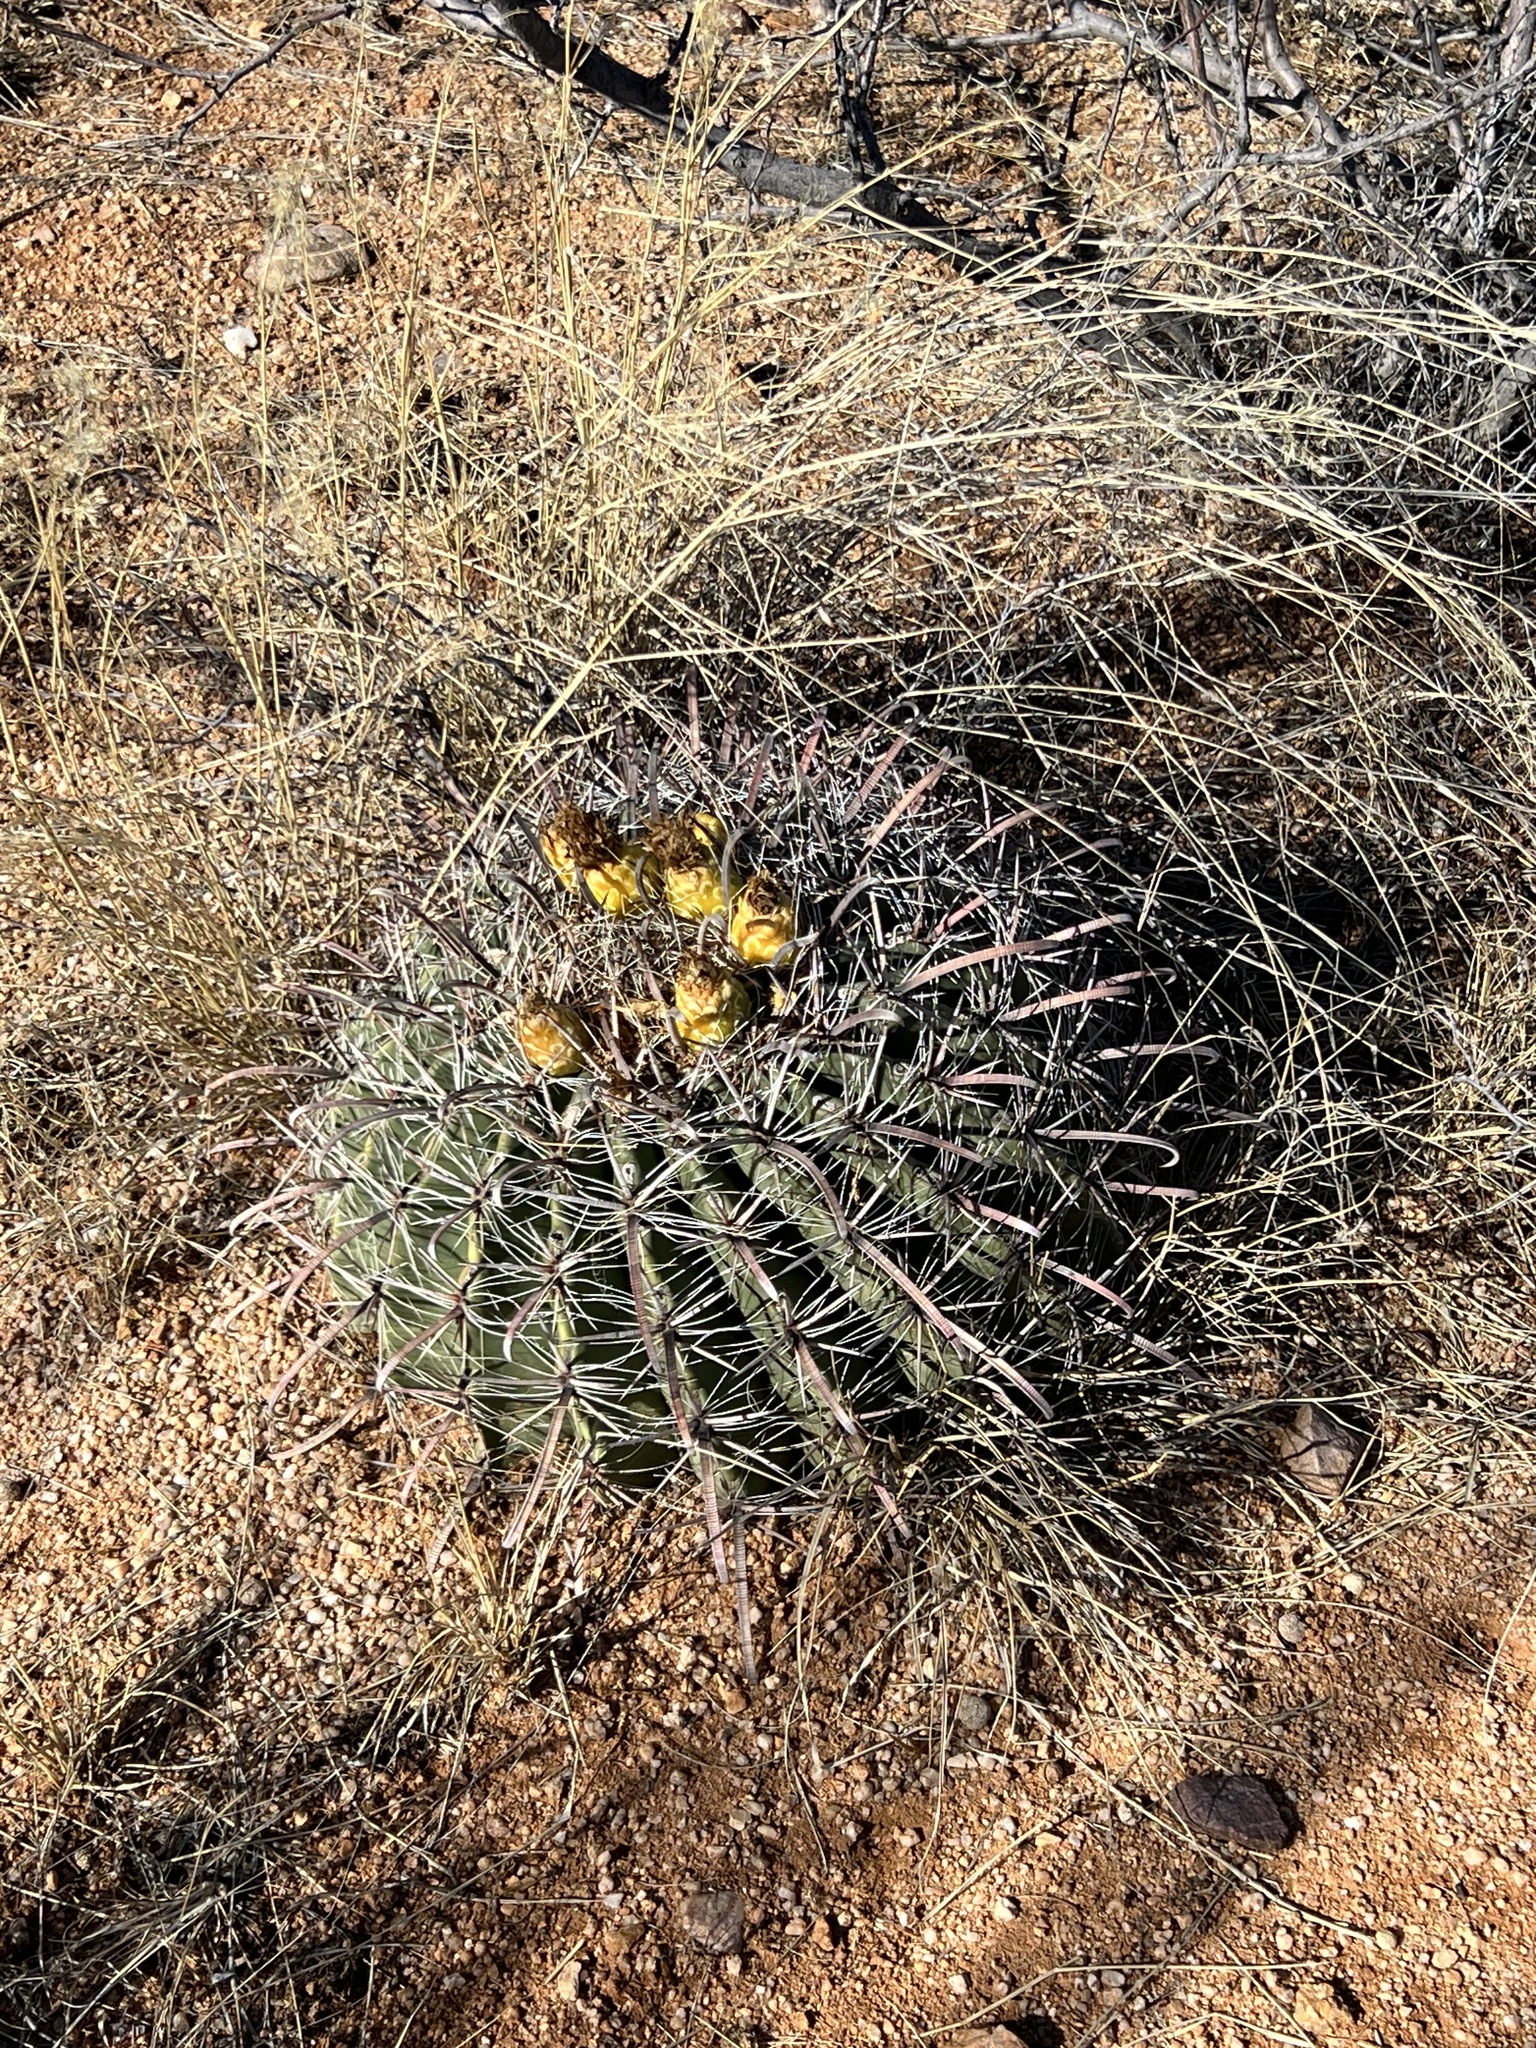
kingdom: Plantae
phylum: Tracheophyta
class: Magnoliopsida
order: Caryophyllales
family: Cactaceae
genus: Ferocactus
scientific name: Ferocactus wislizeni
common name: Candy barrel cactus
